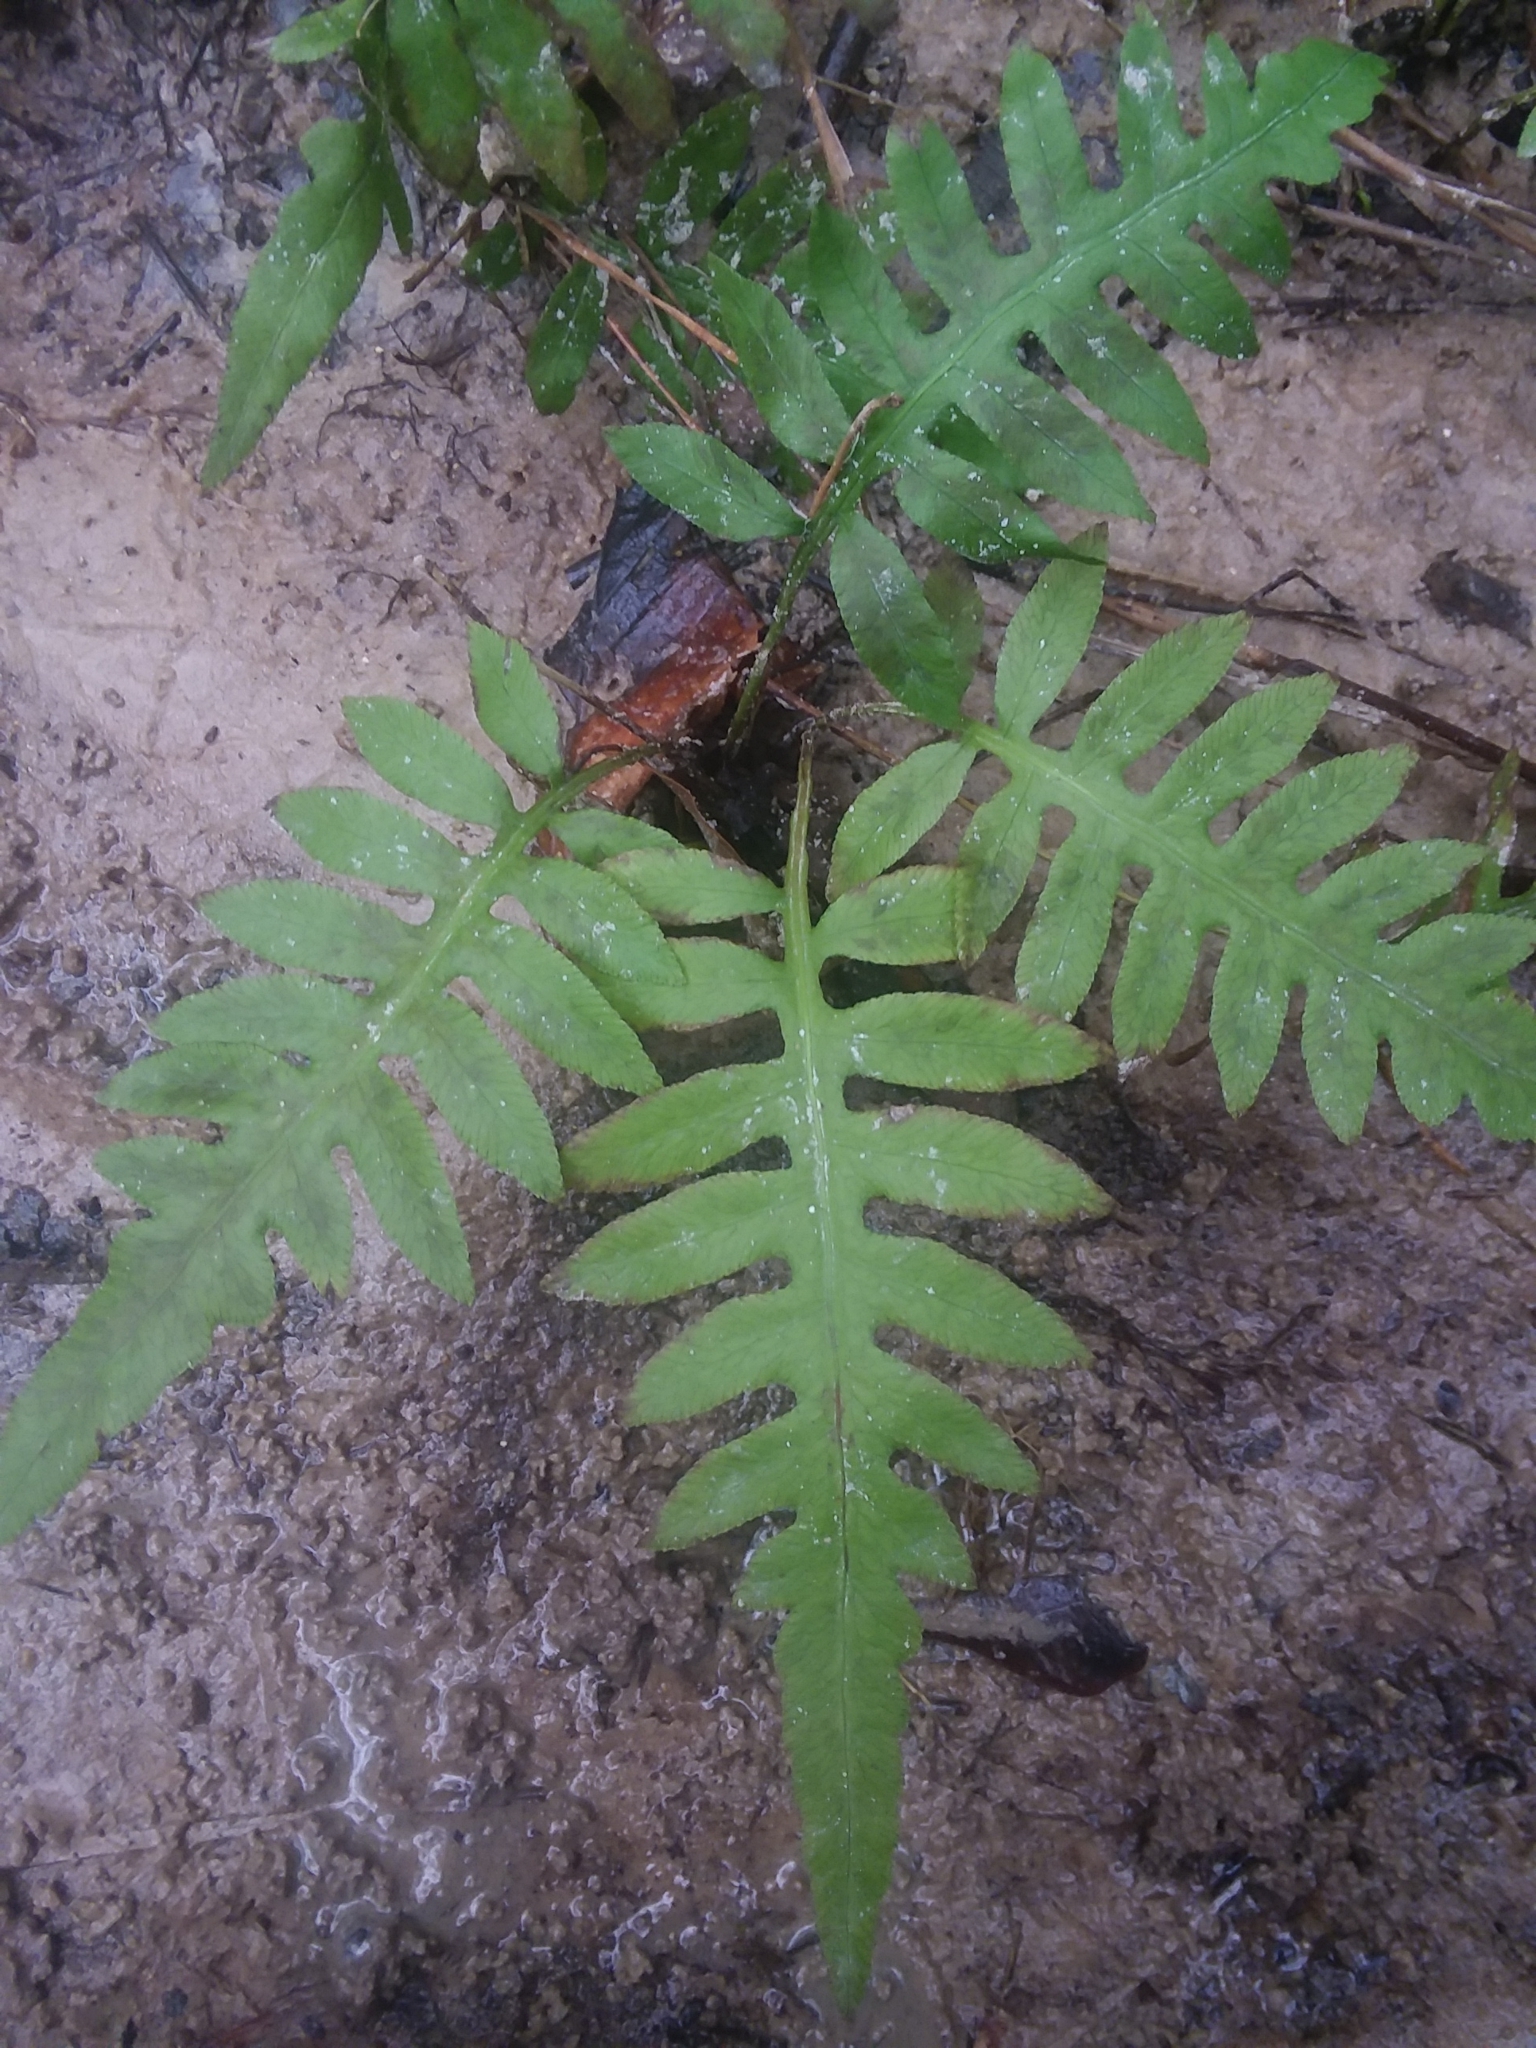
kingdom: Plantae
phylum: Tracheophyta
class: Polypodiopsida
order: Polypodiales
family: Blechnaceae
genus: Lorinseria
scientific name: Lorinseria areolata
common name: Dwarf chain fern
